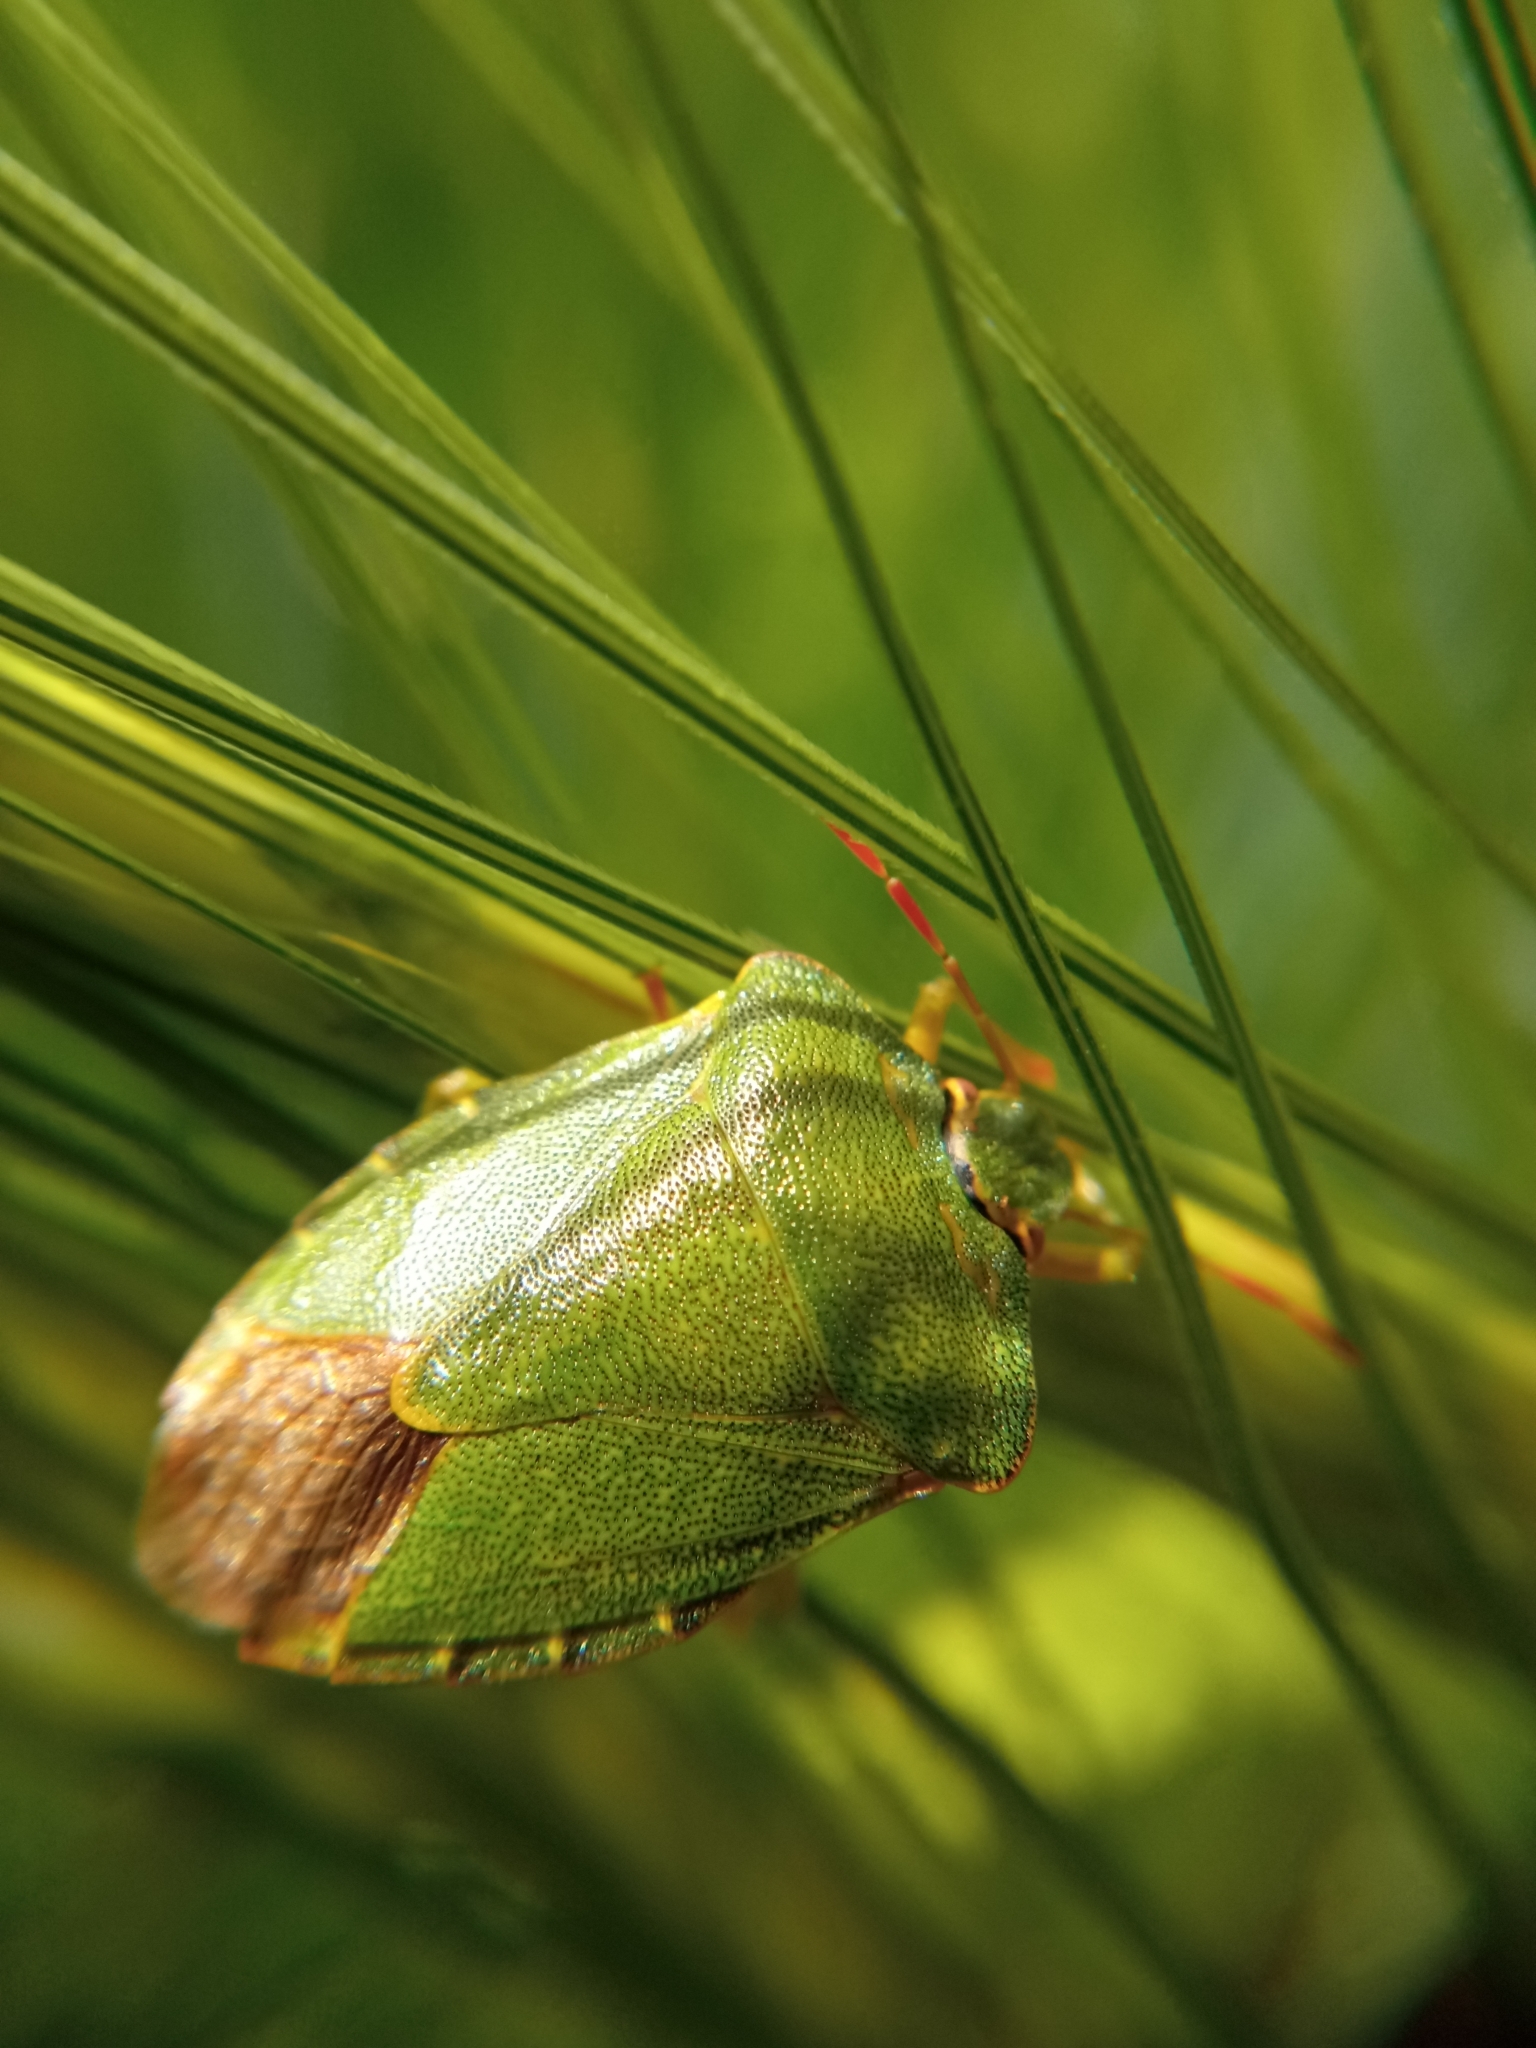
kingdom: Animalia
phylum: Arthropoda
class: Insecta
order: Hemiptera
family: Pentatomidae
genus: Palomena
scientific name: Palomena prasina
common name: Green shieldbug
